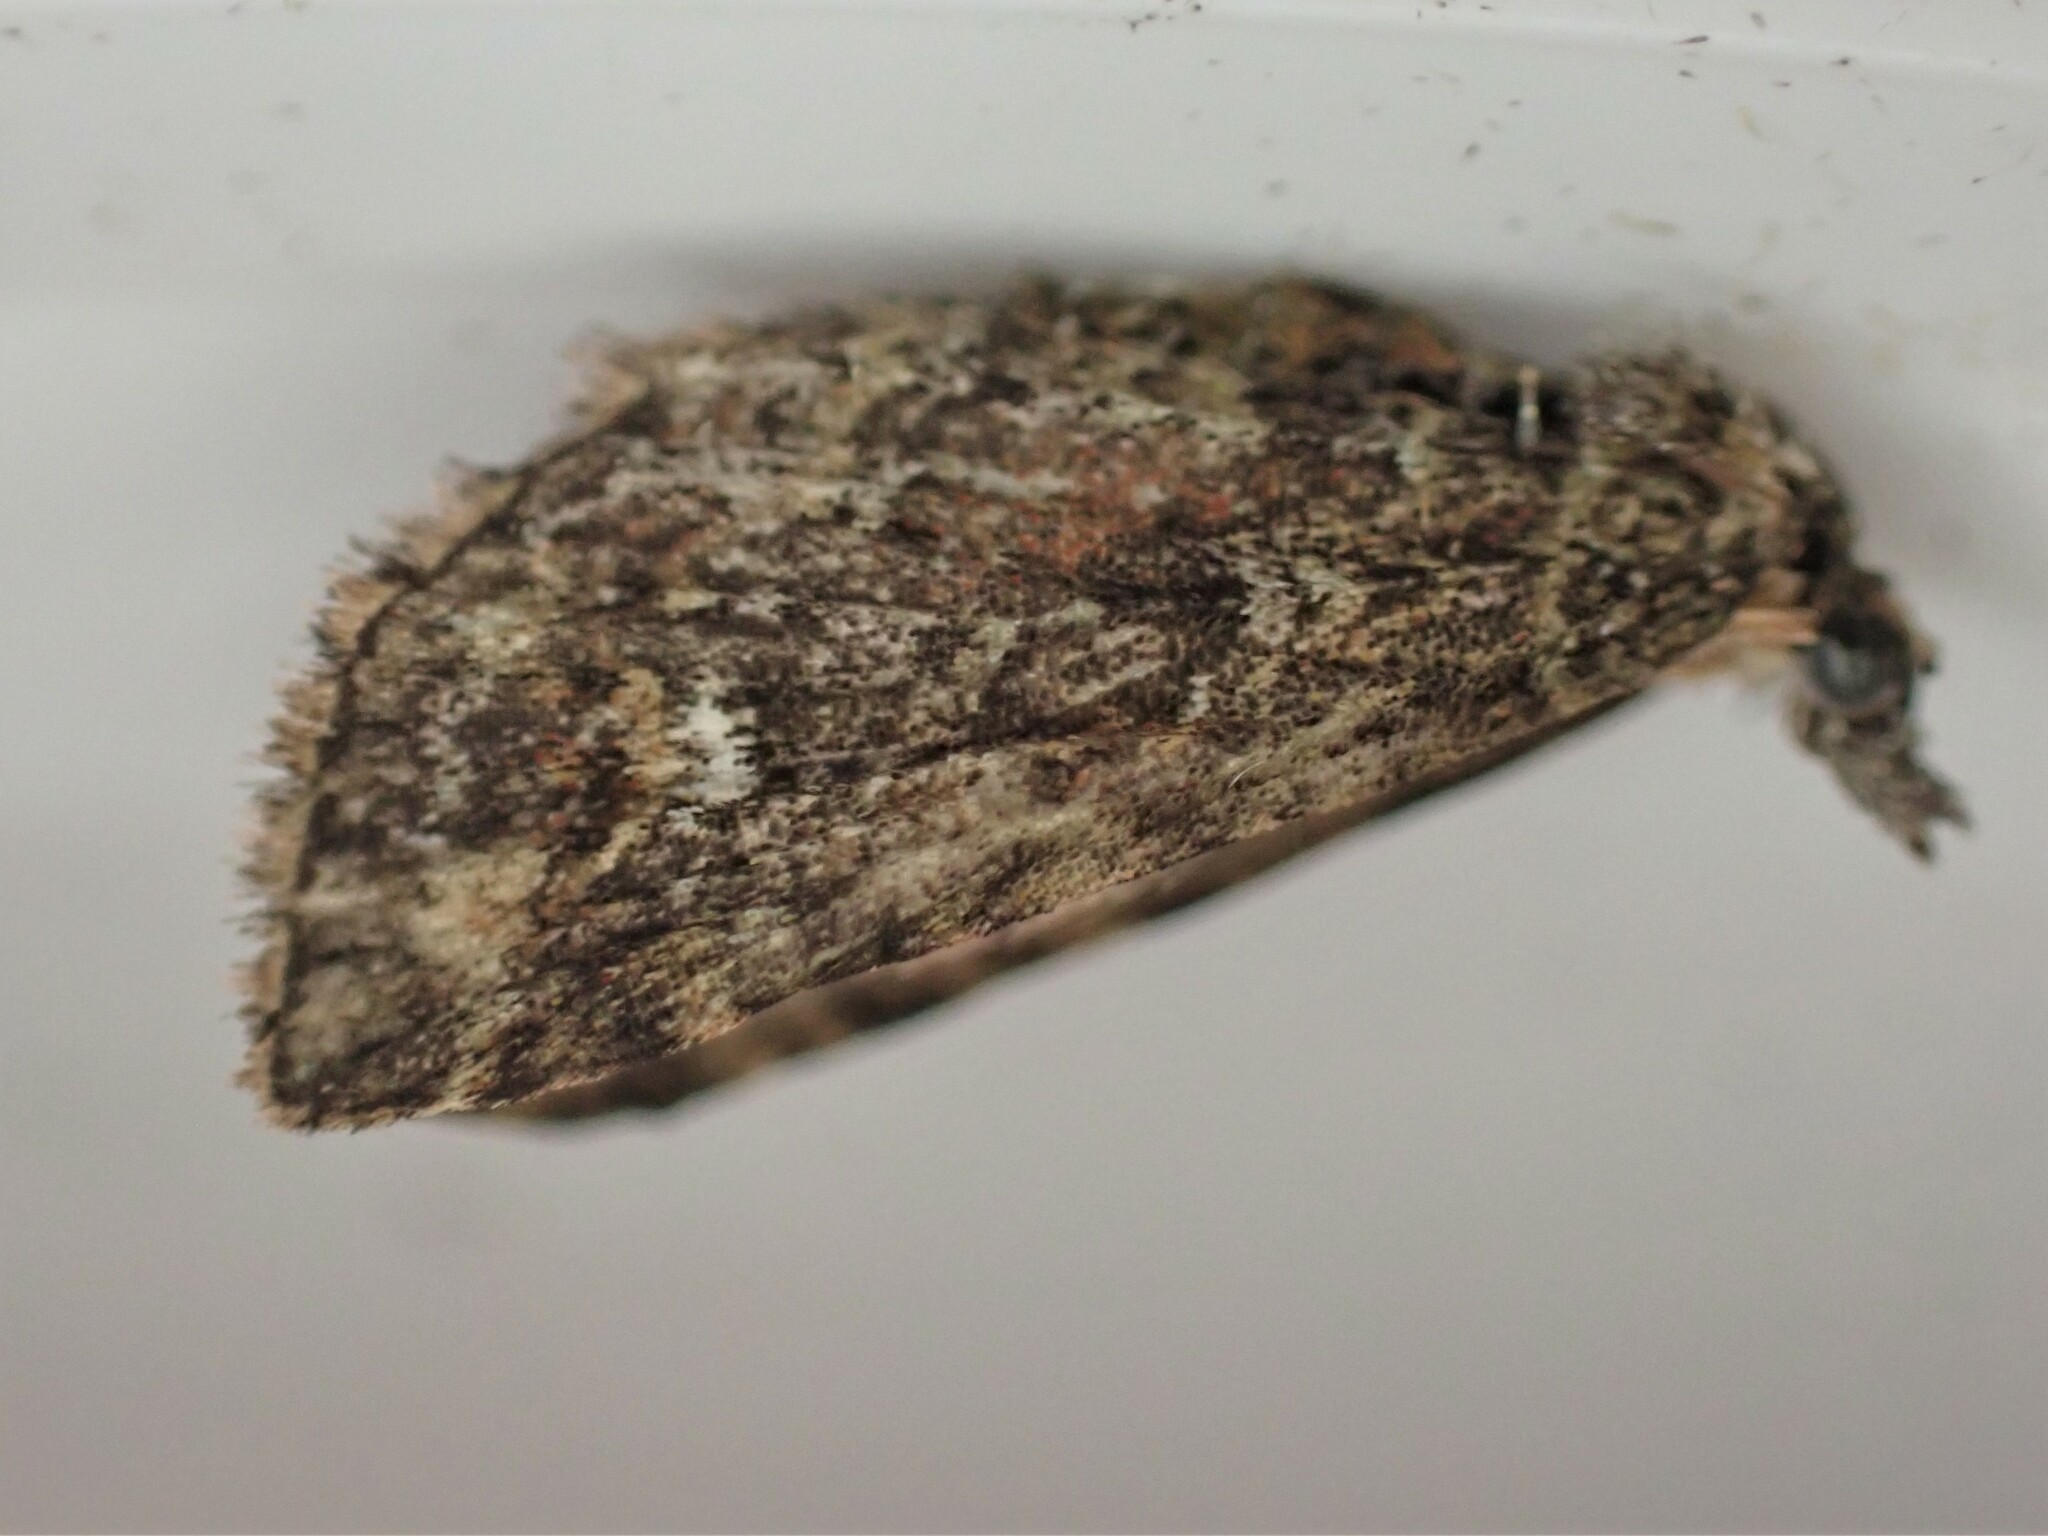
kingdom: Animalia
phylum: Arthropoda
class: Insecta
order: Lepidoptera
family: Geometridae
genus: Pasiphilodes
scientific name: Pasiphilodes testulata
